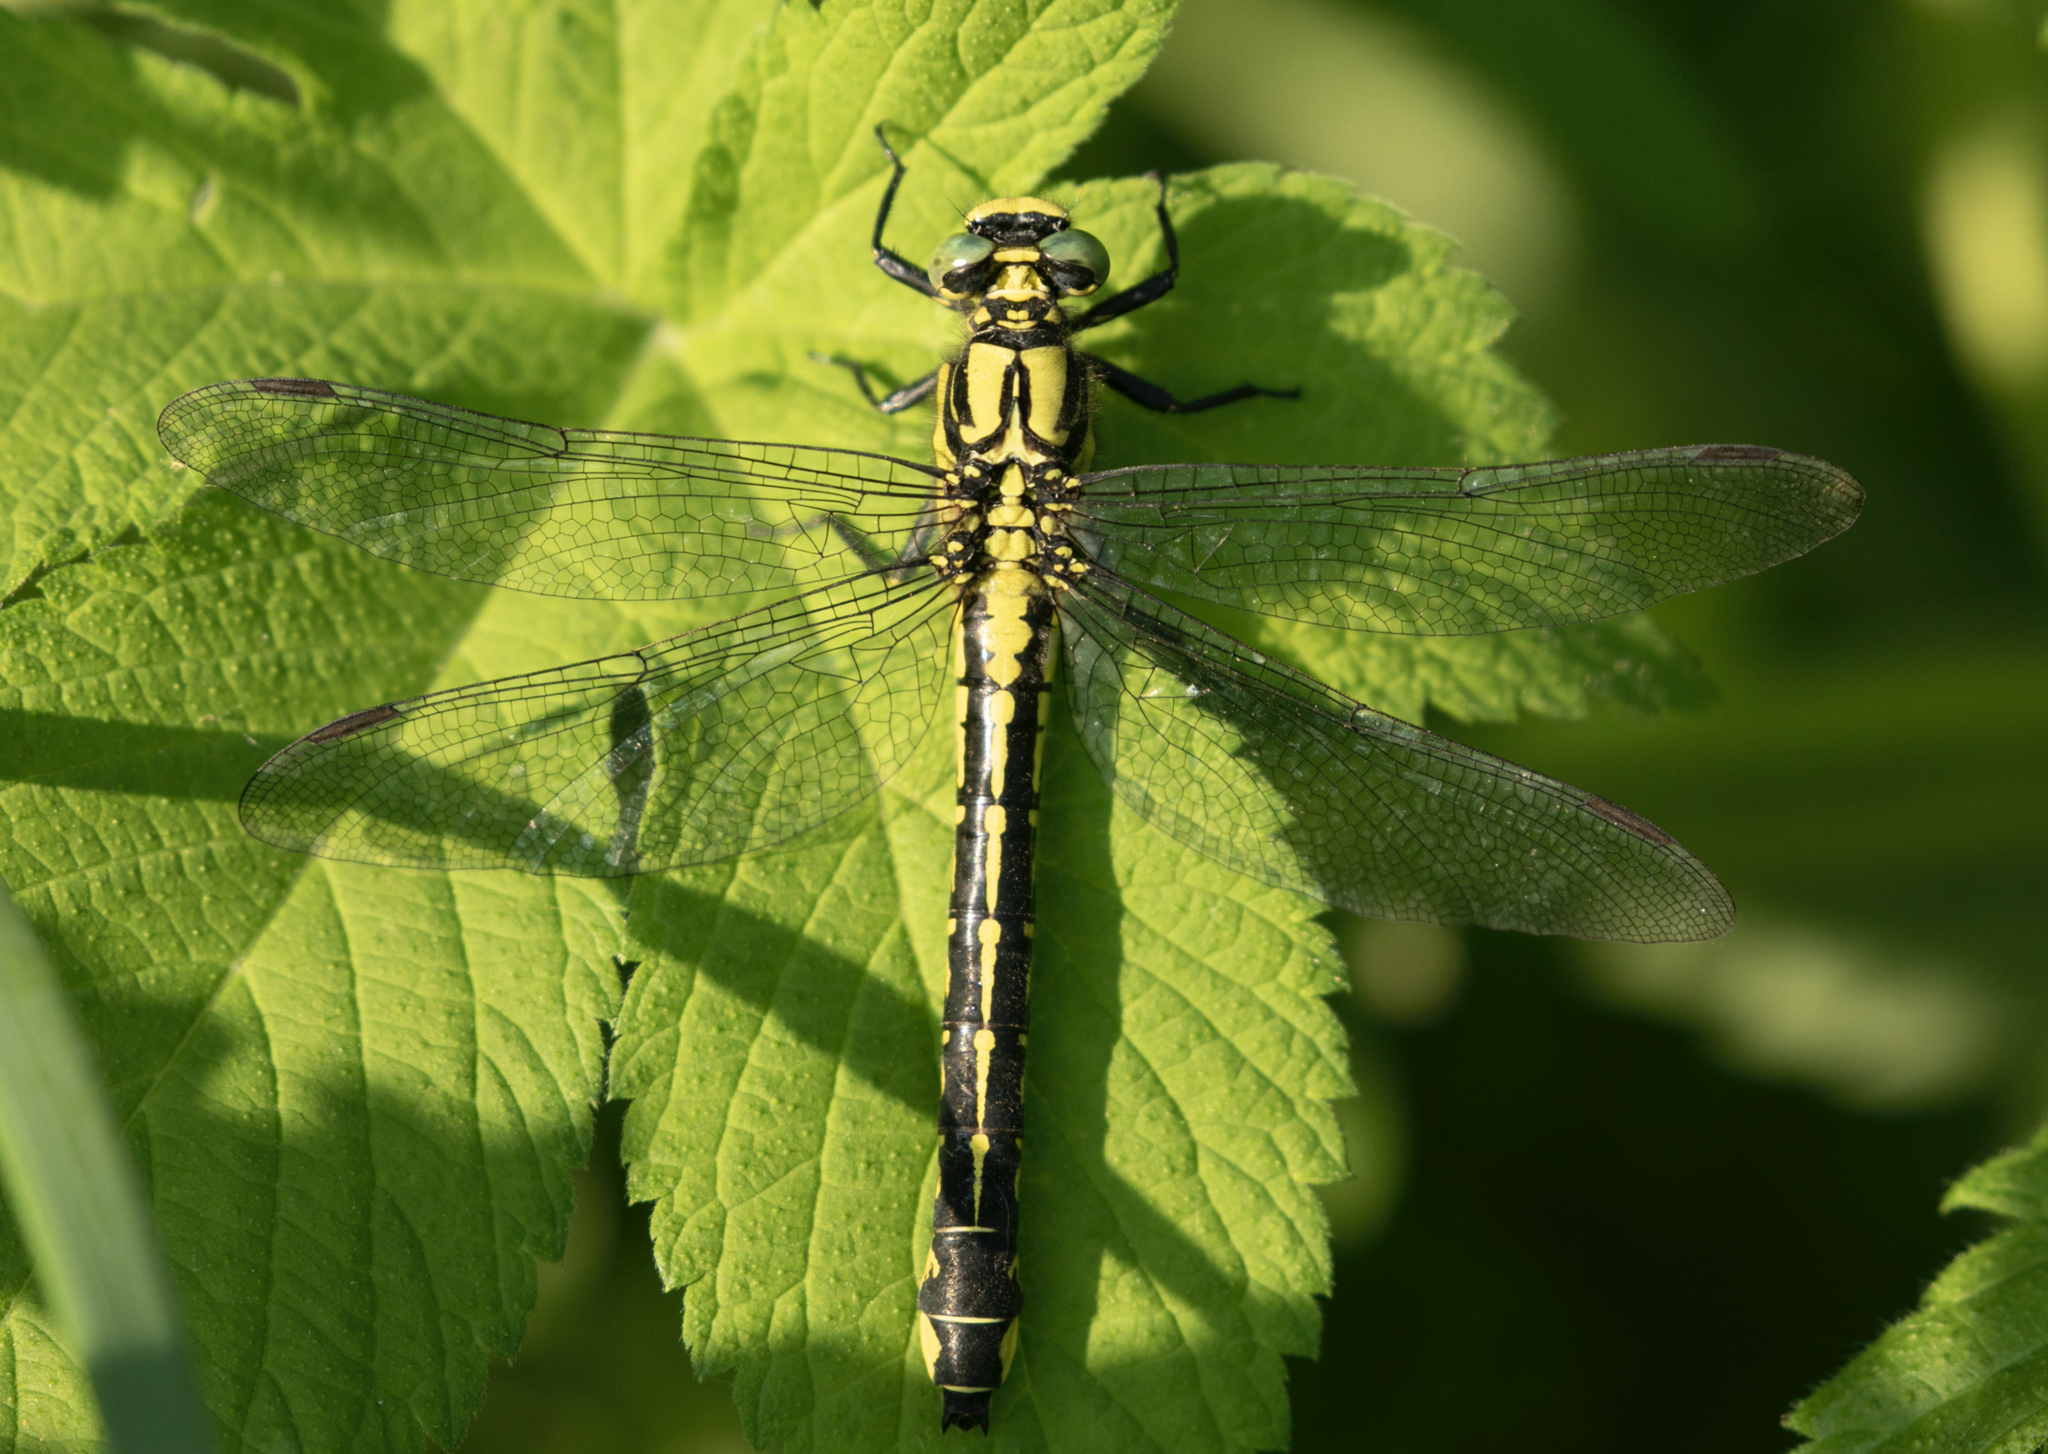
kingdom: Animalia
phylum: Arthropoda
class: Insecta
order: Odonata
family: Gomphidae
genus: Gomphus
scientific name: Gomphus vulgatissimus
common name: Club-tailed dragonfly
